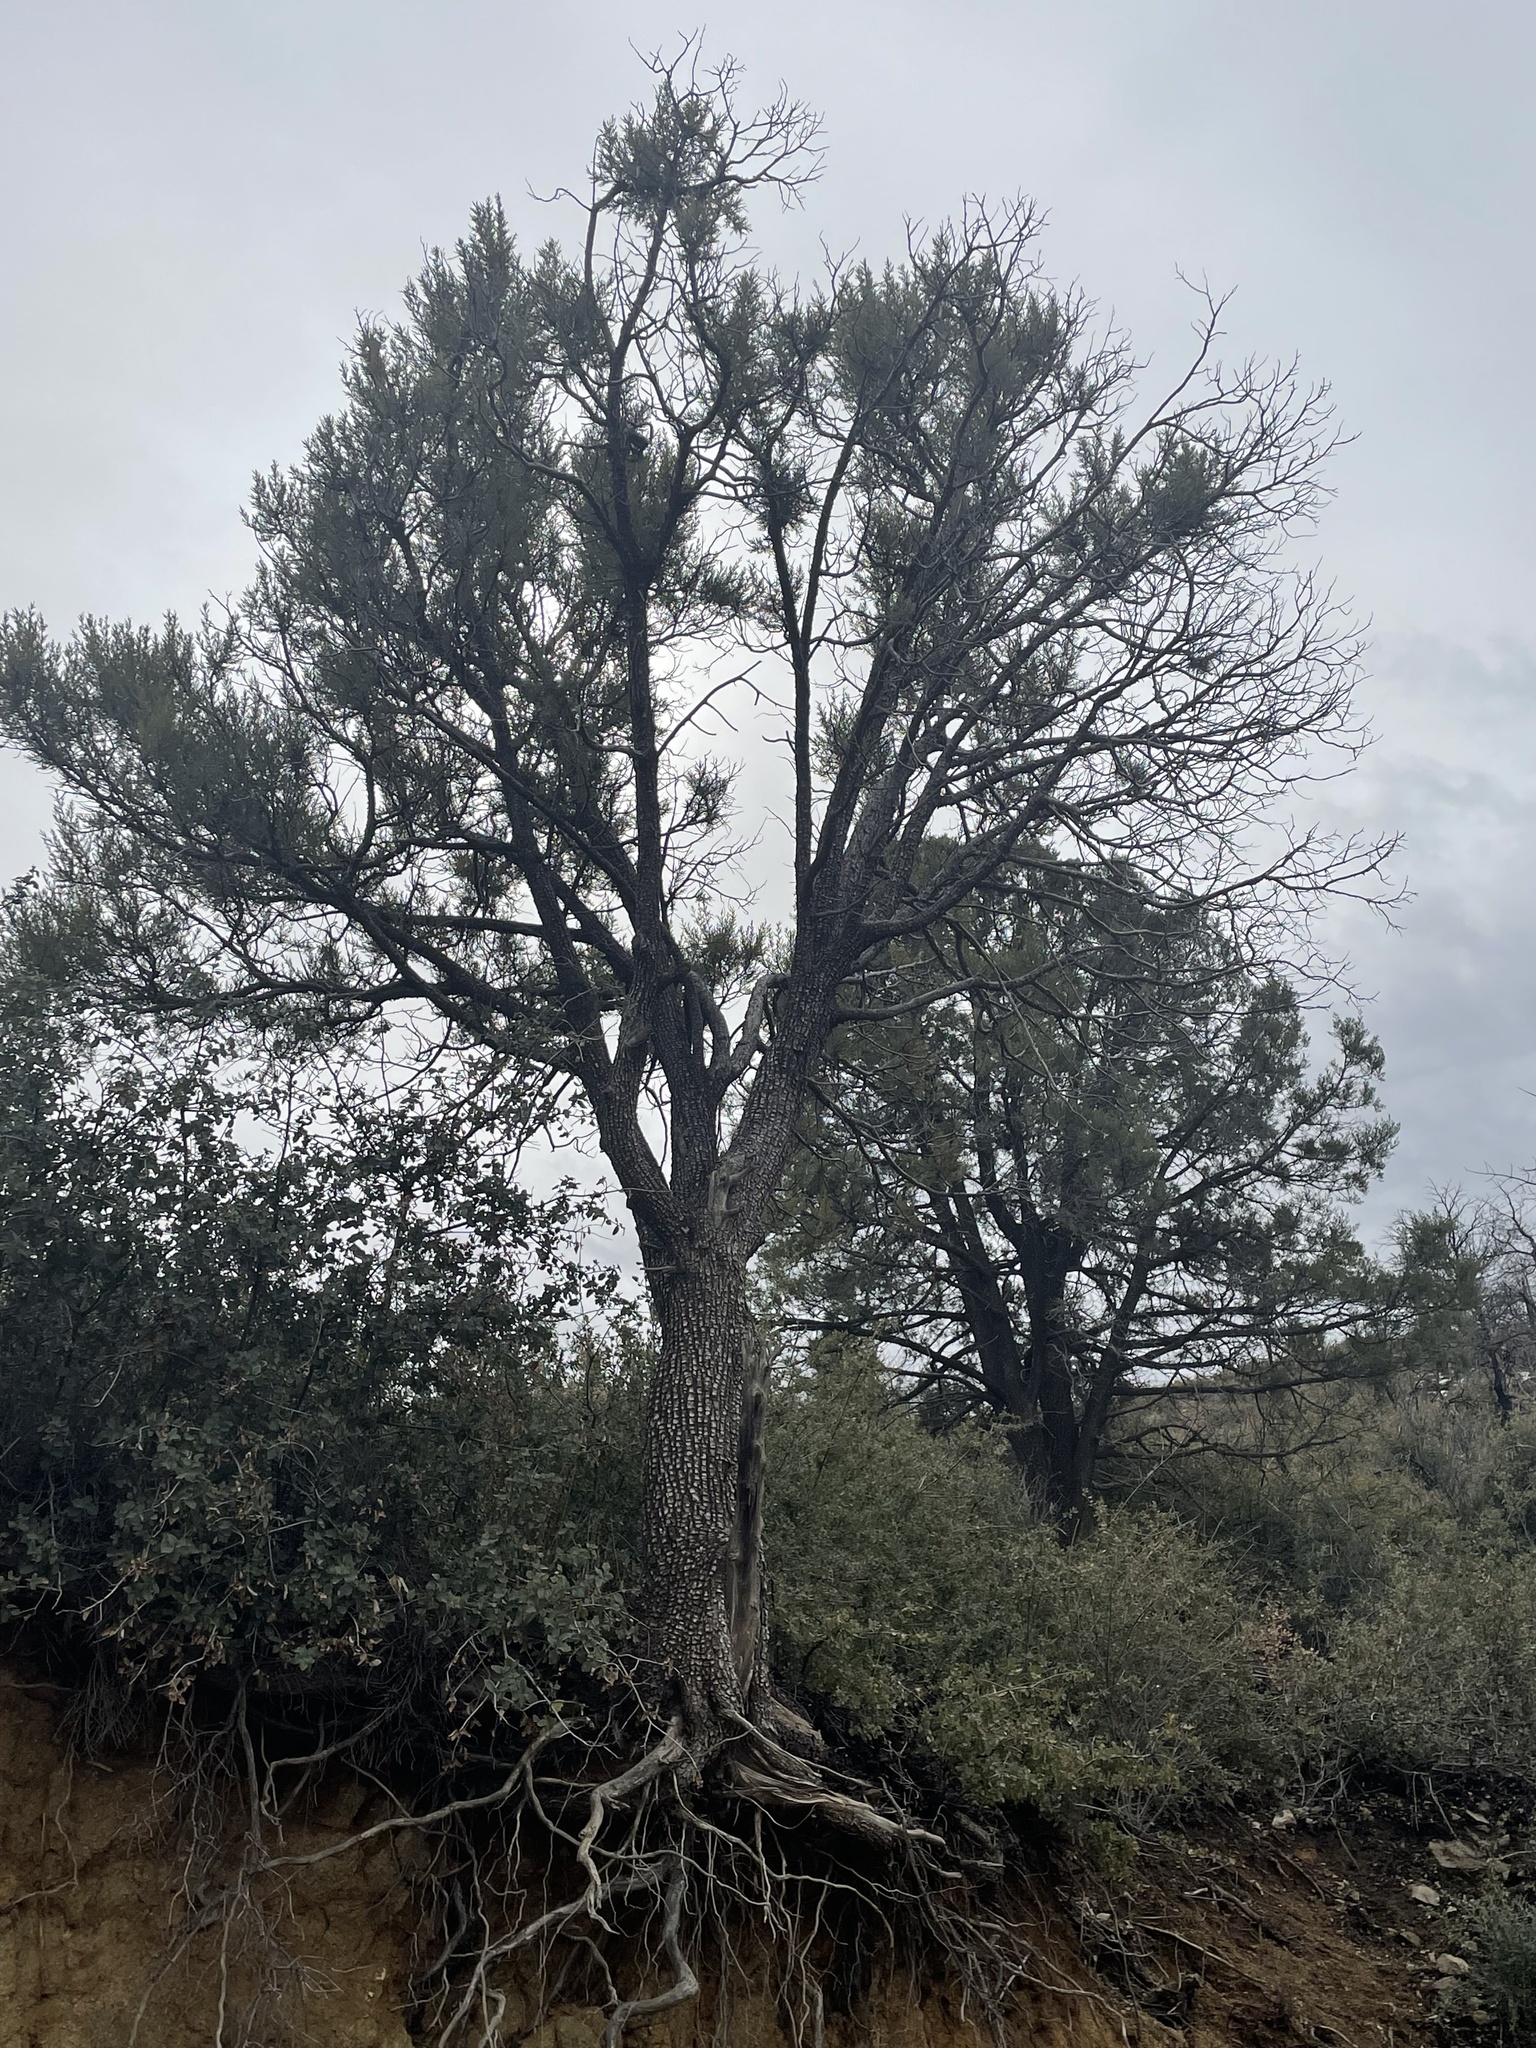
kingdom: Plantae
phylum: Tracheophyta
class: Pinopsida
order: Pinales
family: Cupressaceae
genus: Juniperus
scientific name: Juniperus deppeana
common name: Alligator juniper
